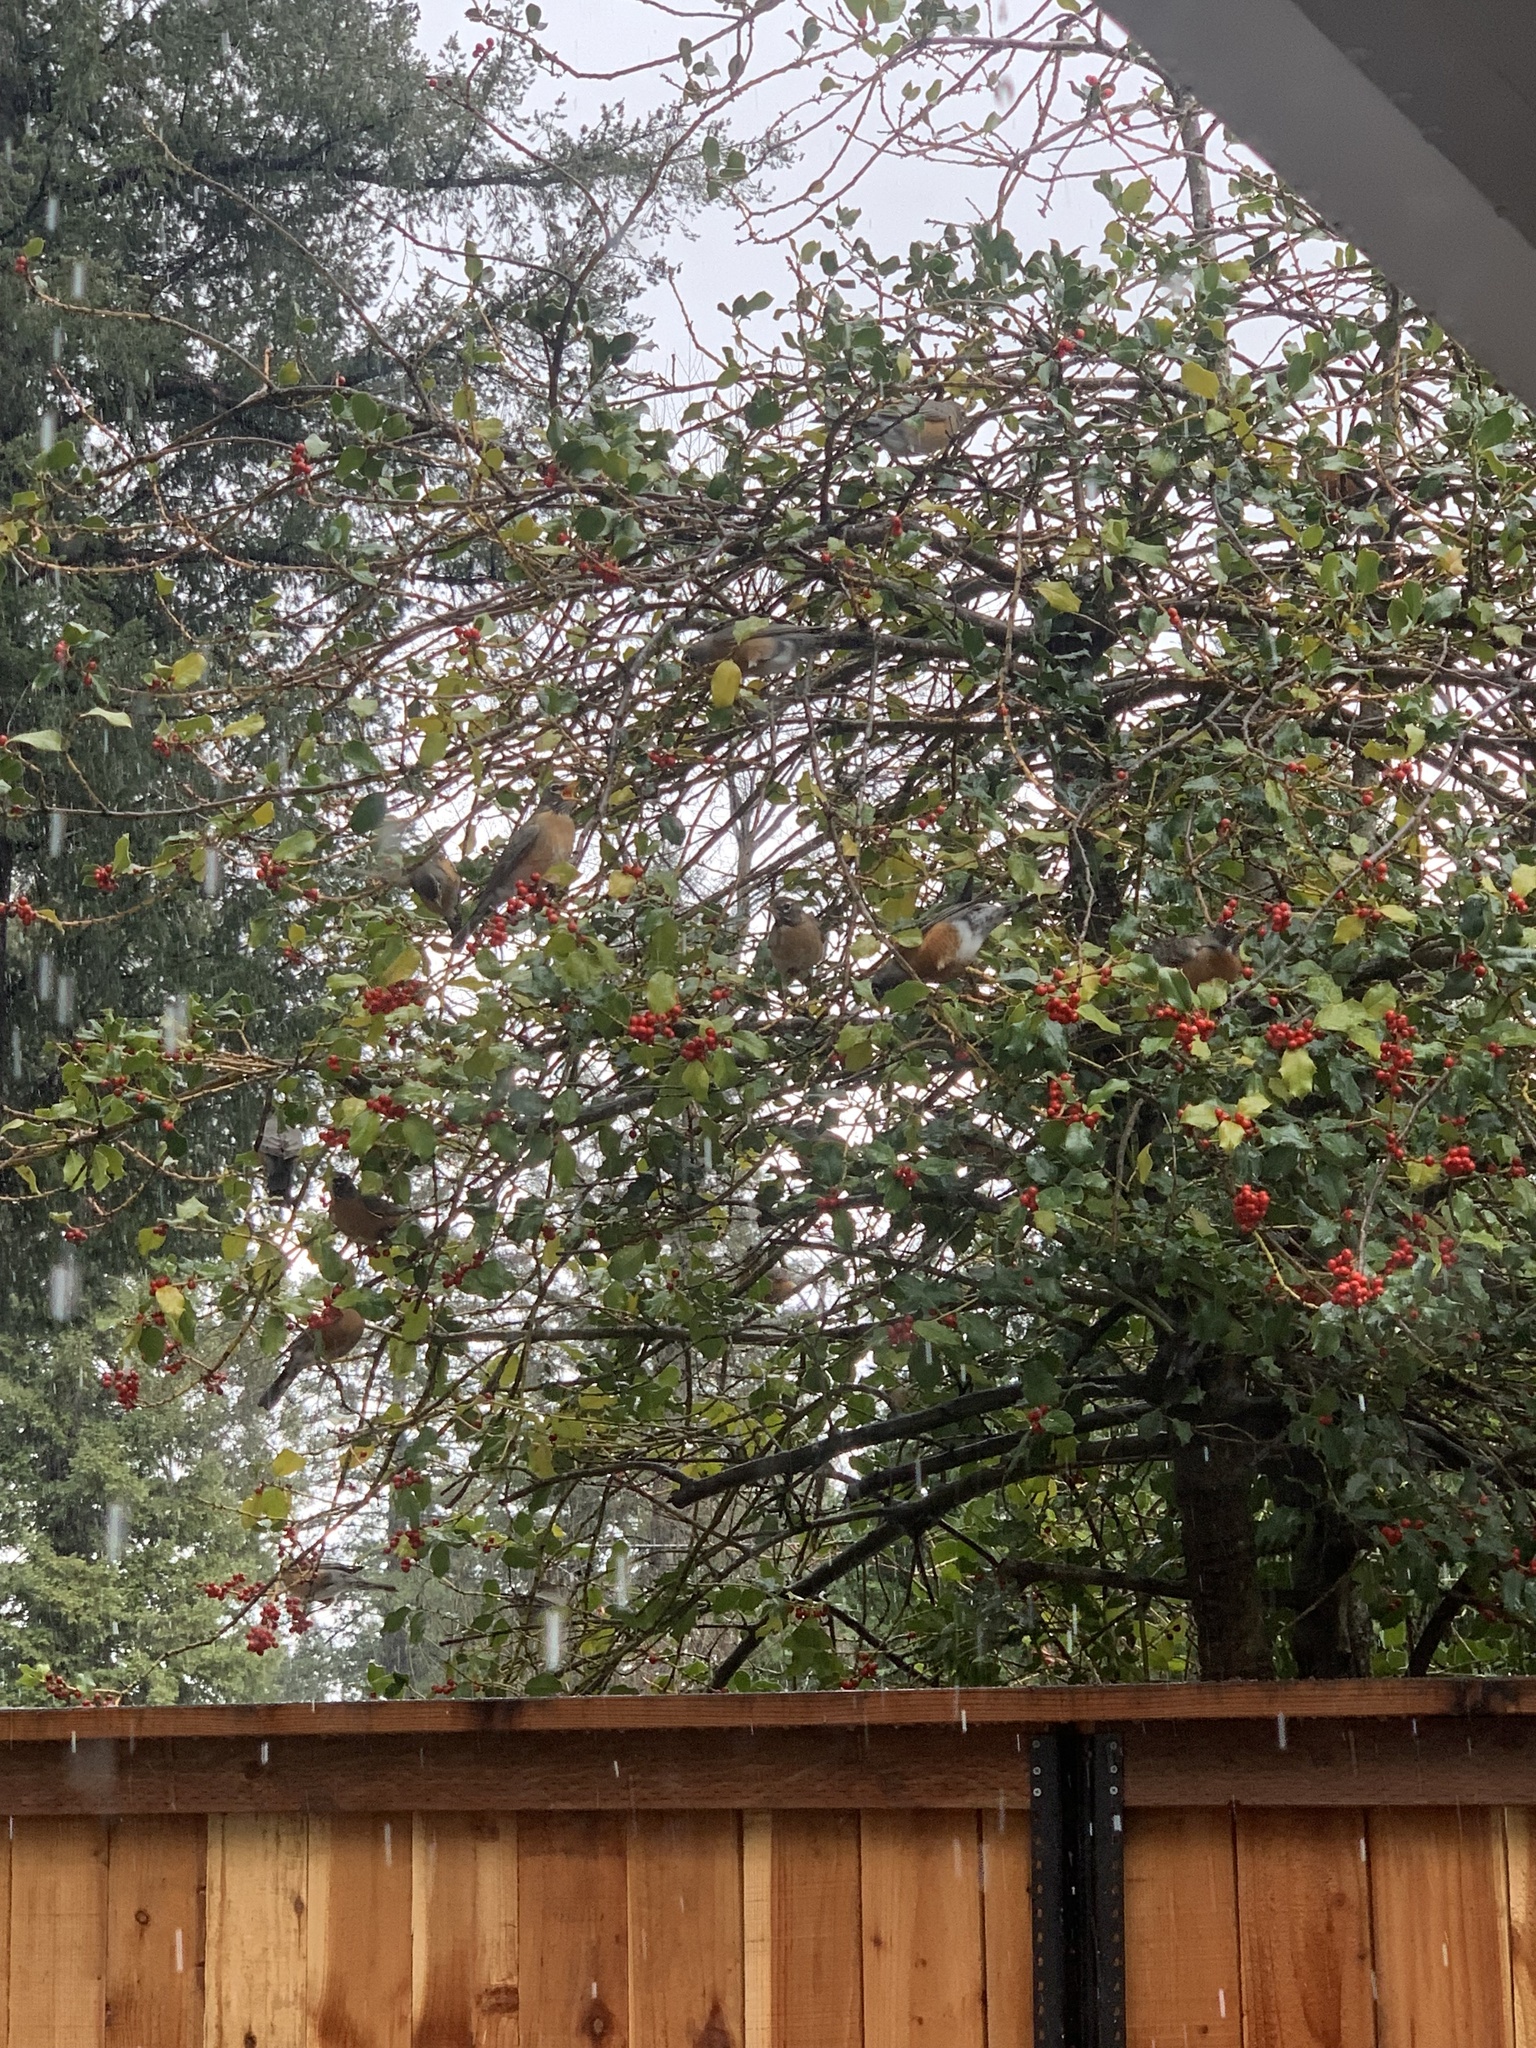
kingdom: Animalia
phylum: Chordata
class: Aves
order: Passeriformes
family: Turdidae
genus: Turdus
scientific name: Turdus migratorius
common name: American robin
